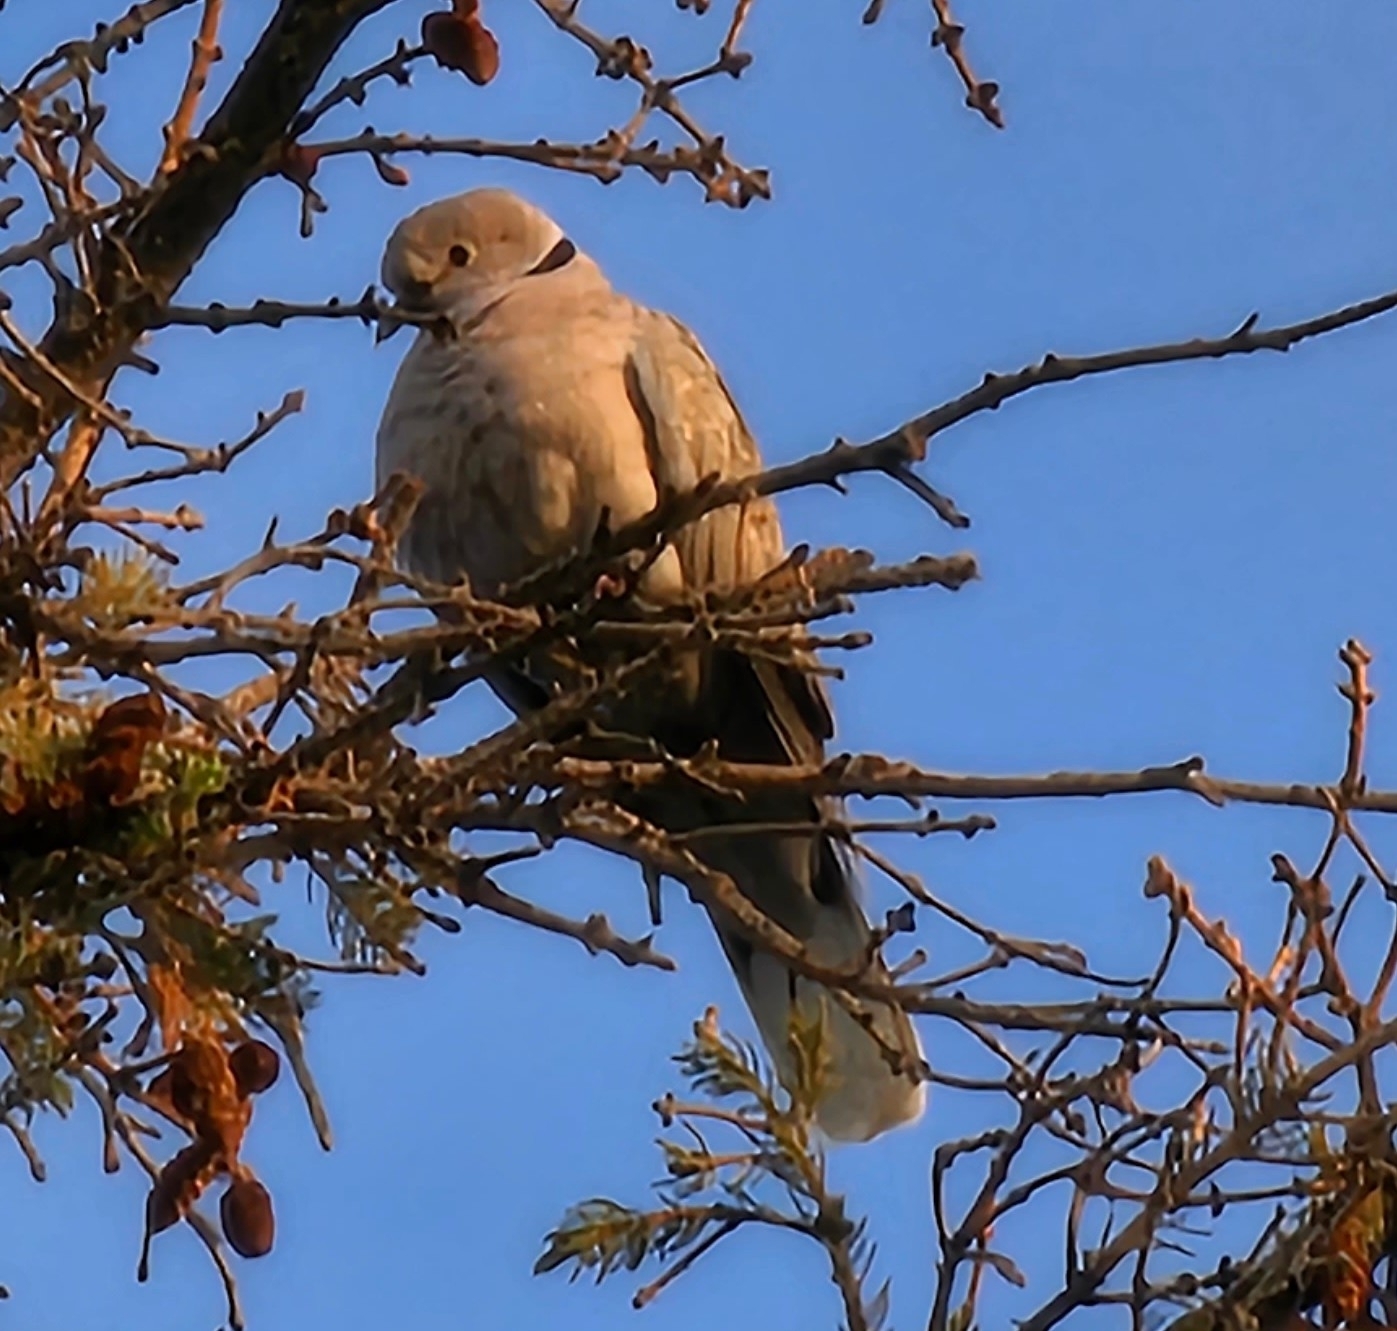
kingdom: Animalia
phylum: Chordata
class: Aves
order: Columbiformes
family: Columbidae
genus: Streptopelia
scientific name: Streptopelia decaocto
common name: Eurasian collared dove
